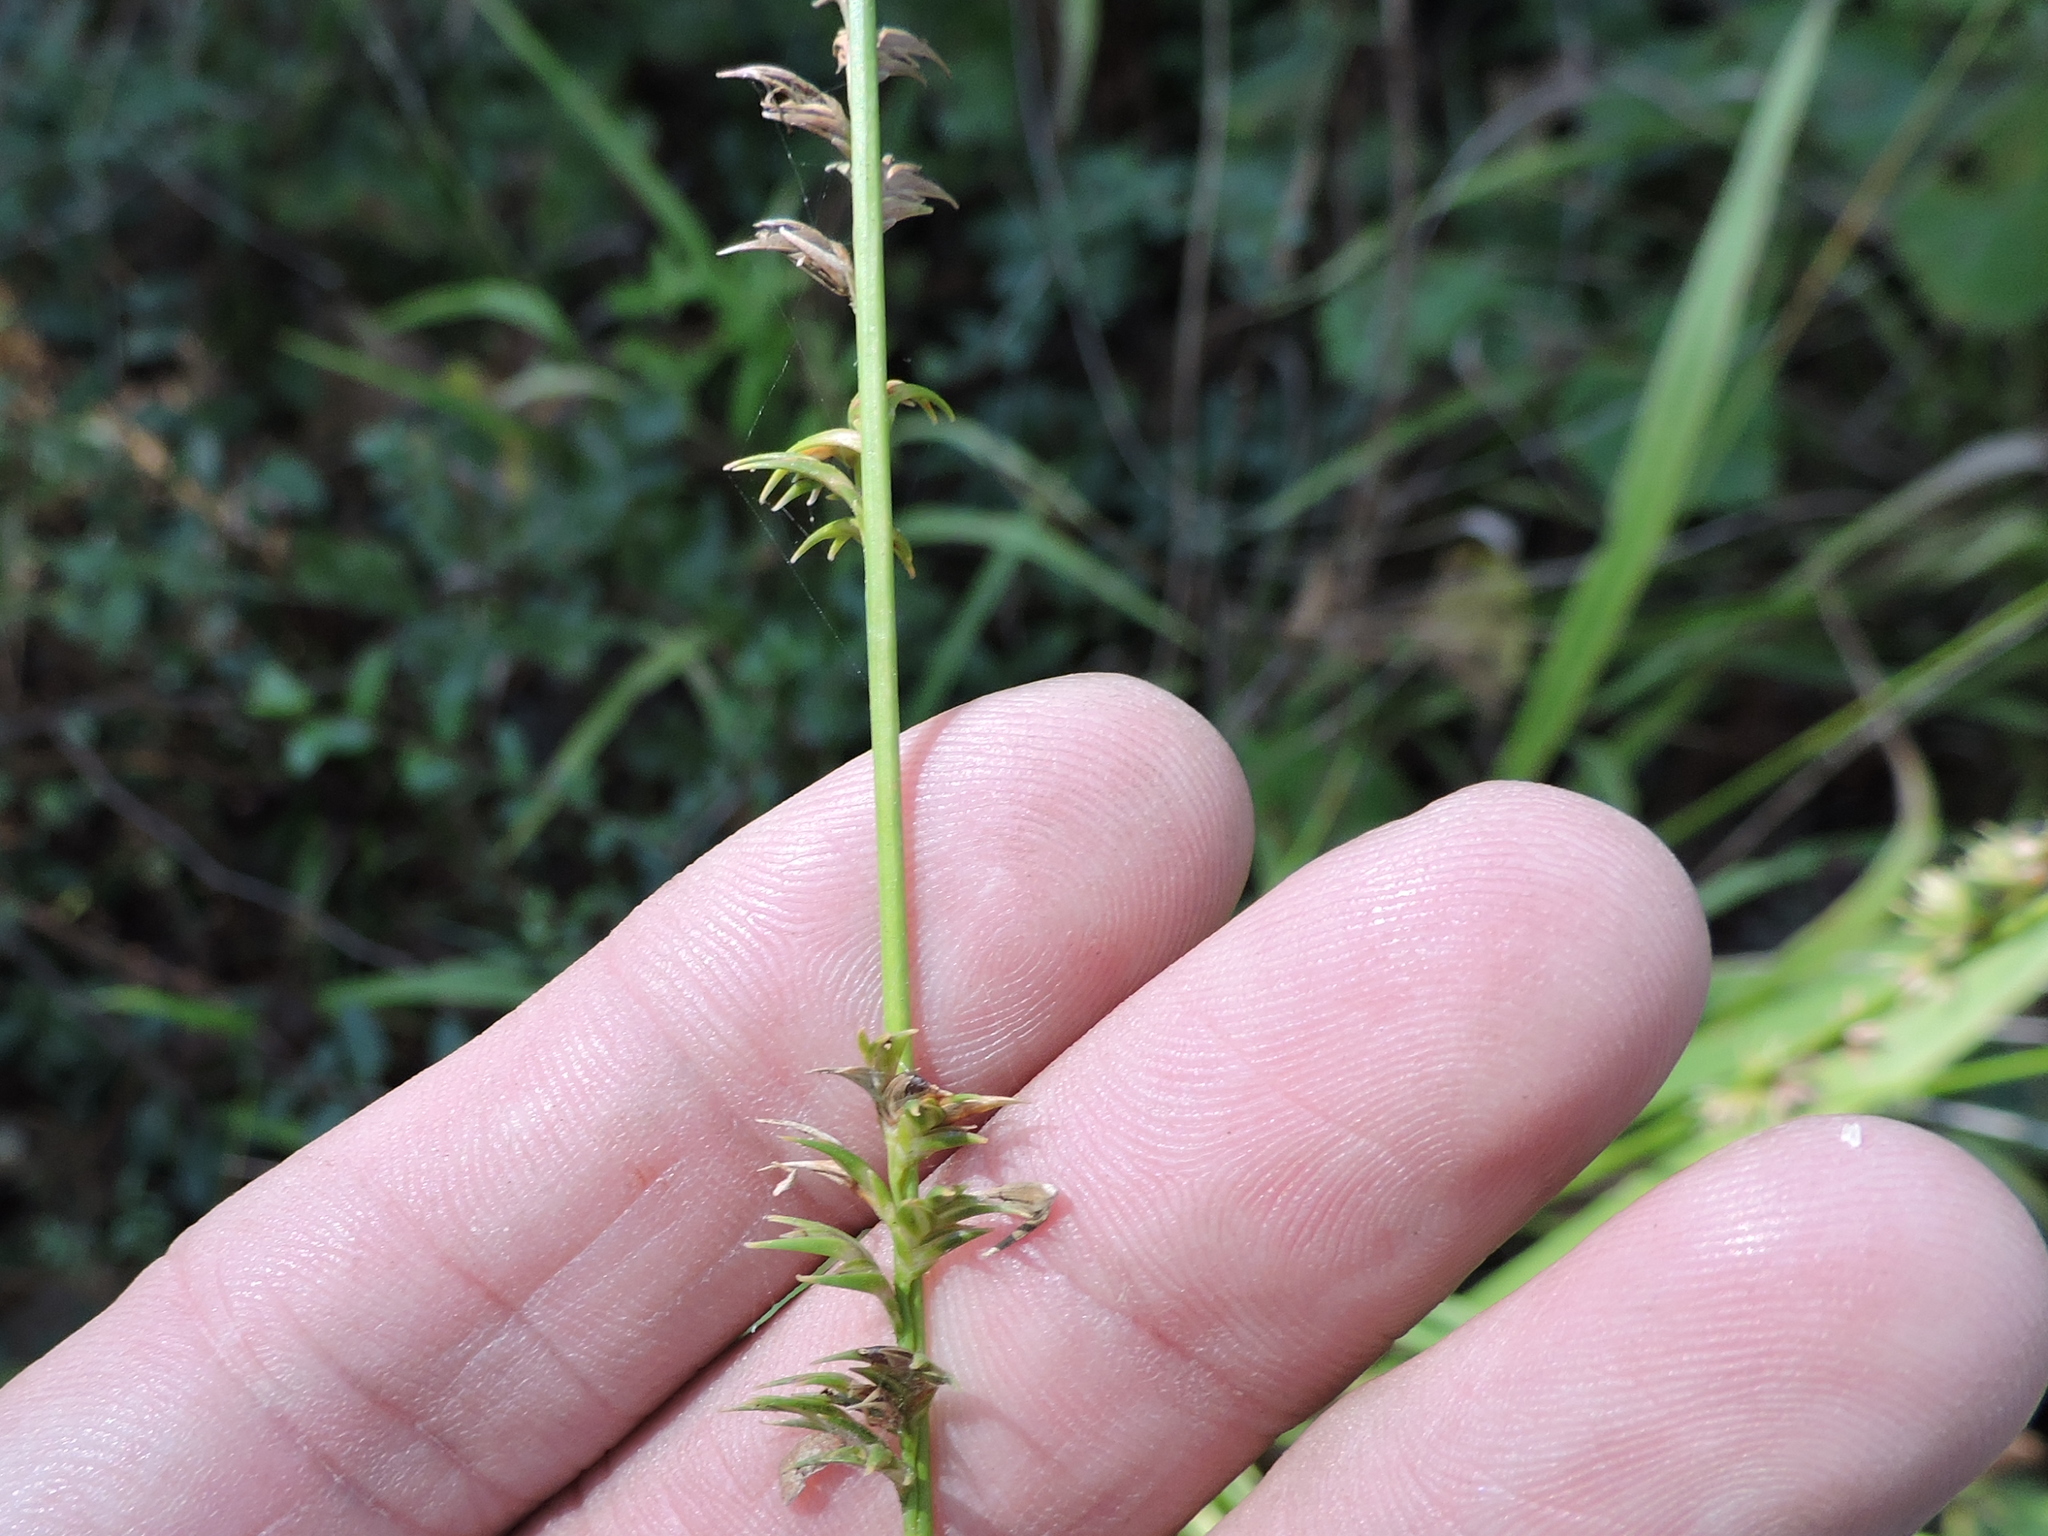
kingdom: Plantae
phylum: Tracheophyta
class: Liliopsida
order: Poales
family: Poaceae
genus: Chasmanthium
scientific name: Chasmanthium laxum
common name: Slender chasmanthium
